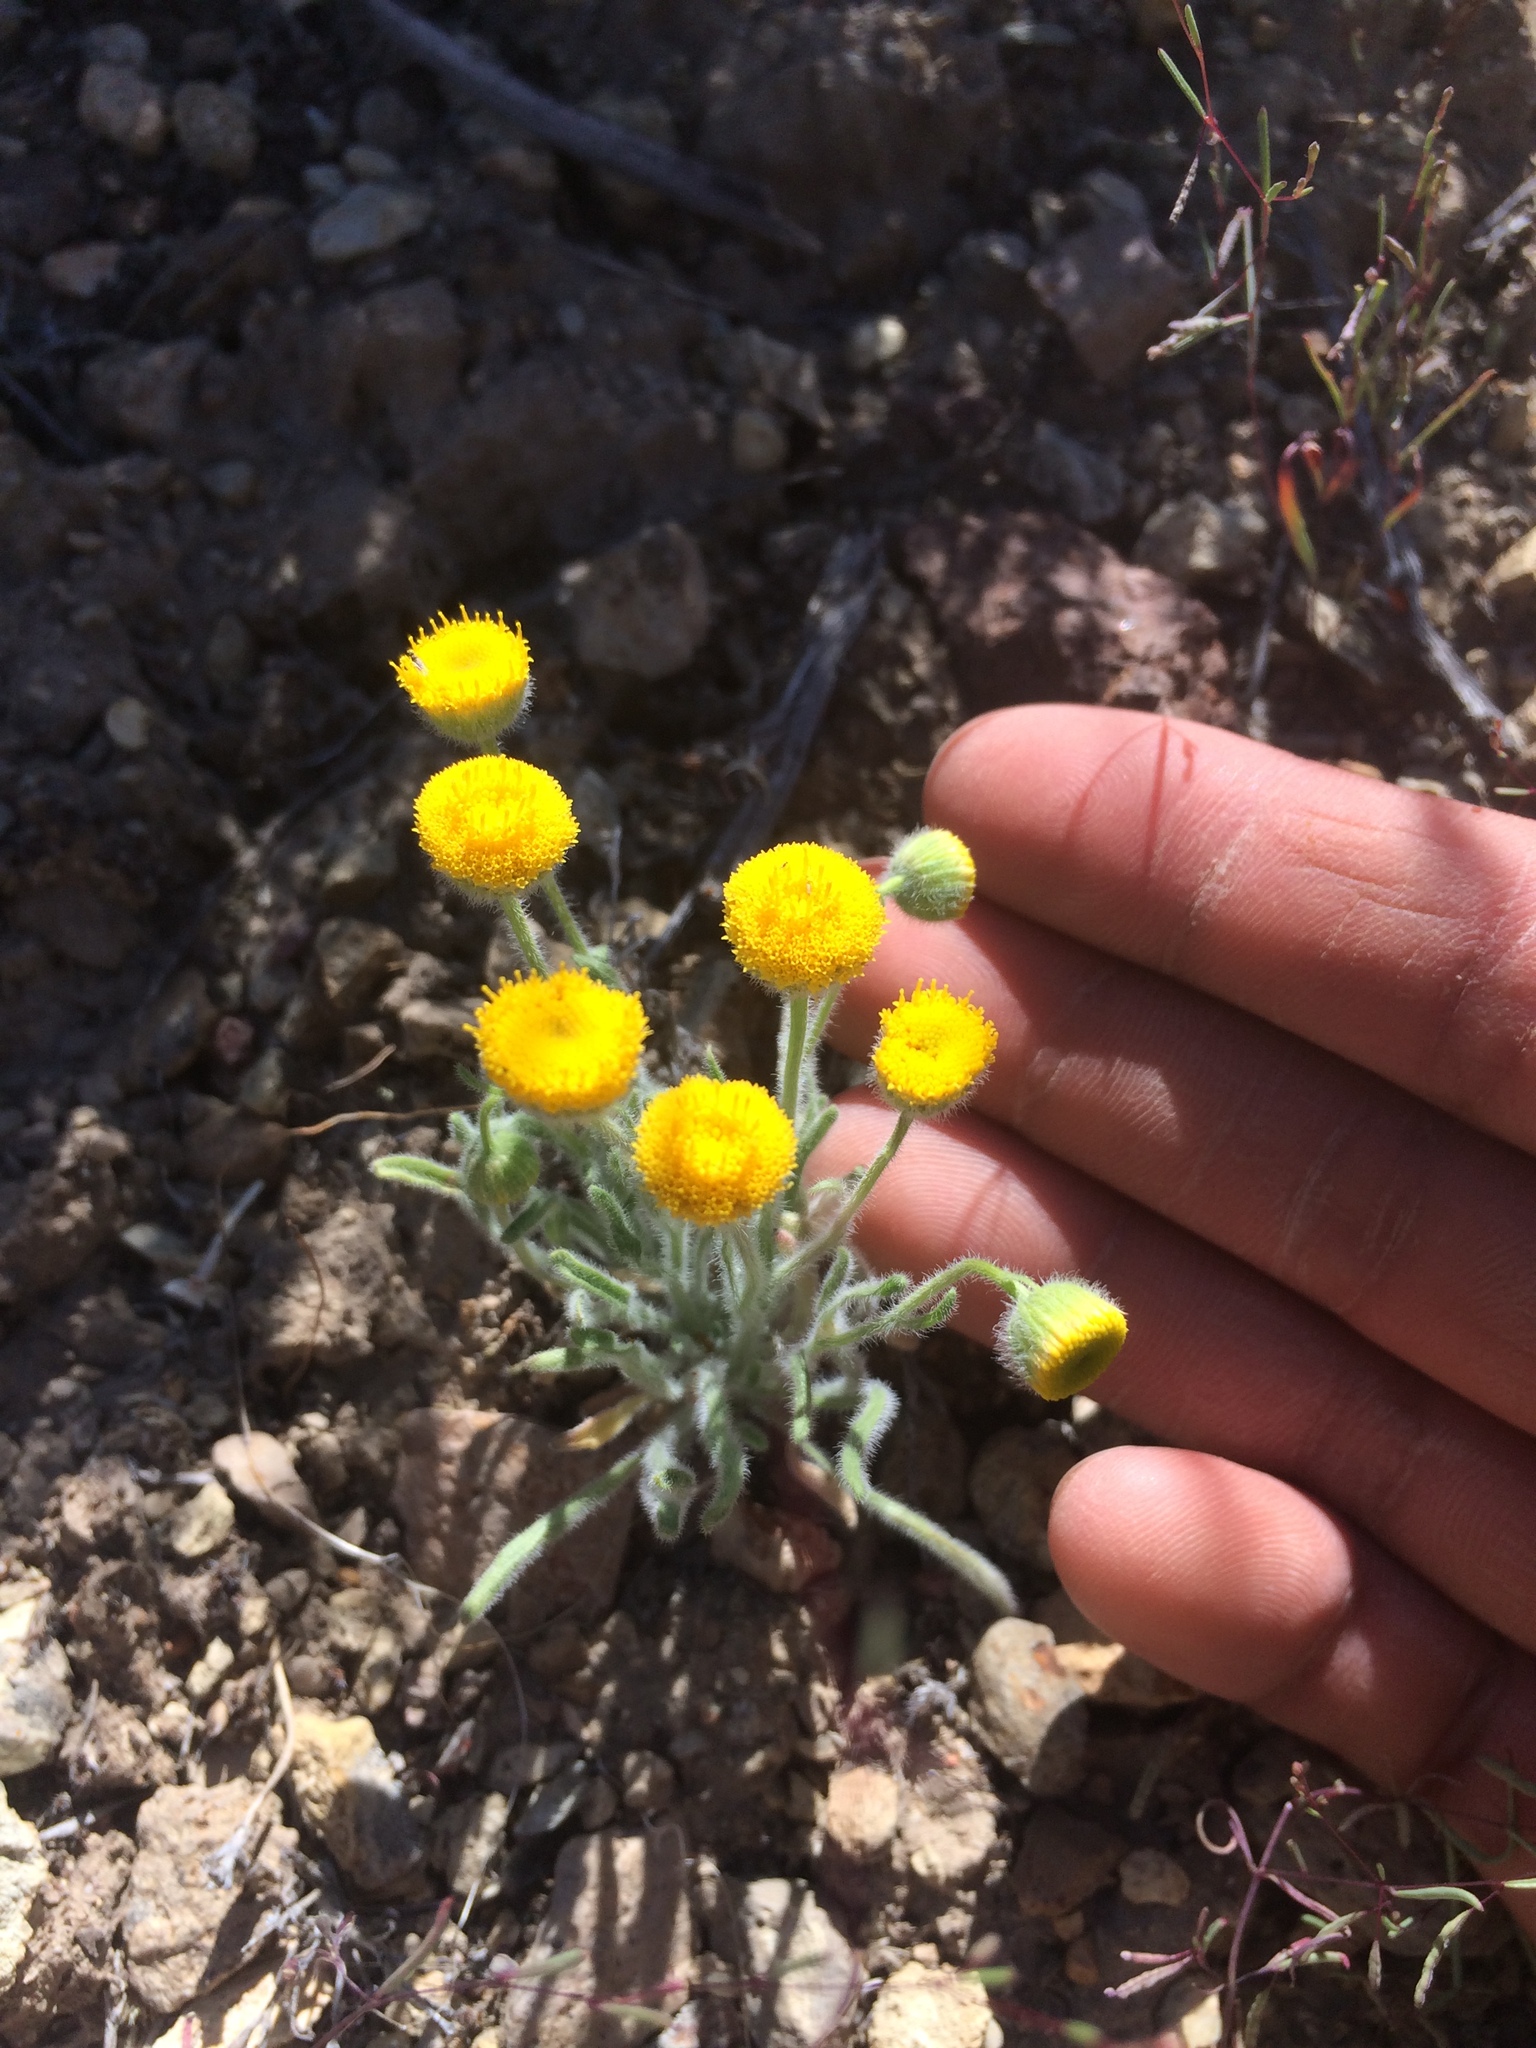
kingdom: Plantae
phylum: Tracheophyta
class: Magnoliopsida
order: Asterales
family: Asteraceae
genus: Erigeron
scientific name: Erigeron aphanactis
